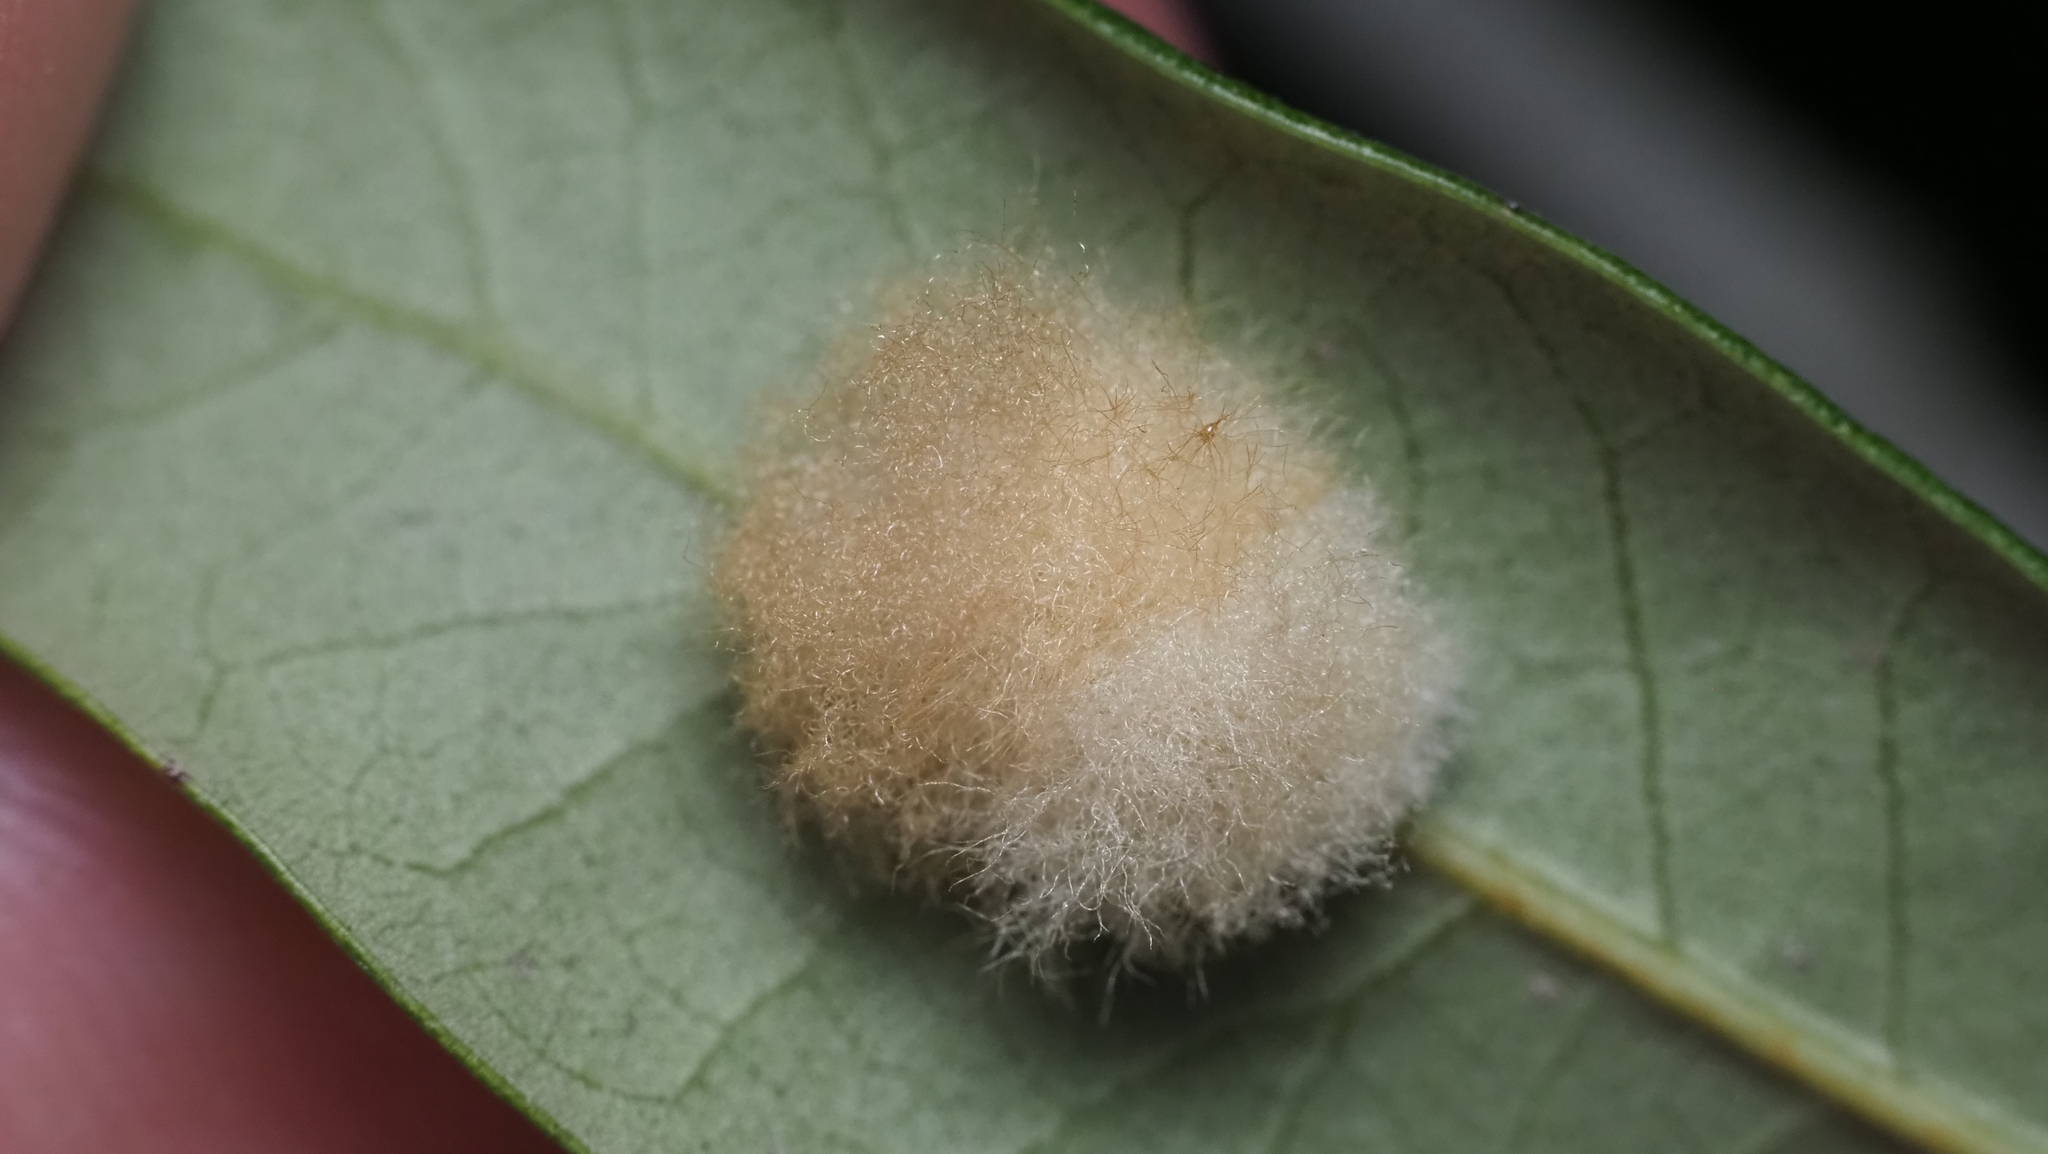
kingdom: Animalia
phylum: Arthropoda
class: Insecta
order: Hymenoptera
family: Cynipidae
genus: Andricus
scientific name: Andricus Druon quercuslanigerum
